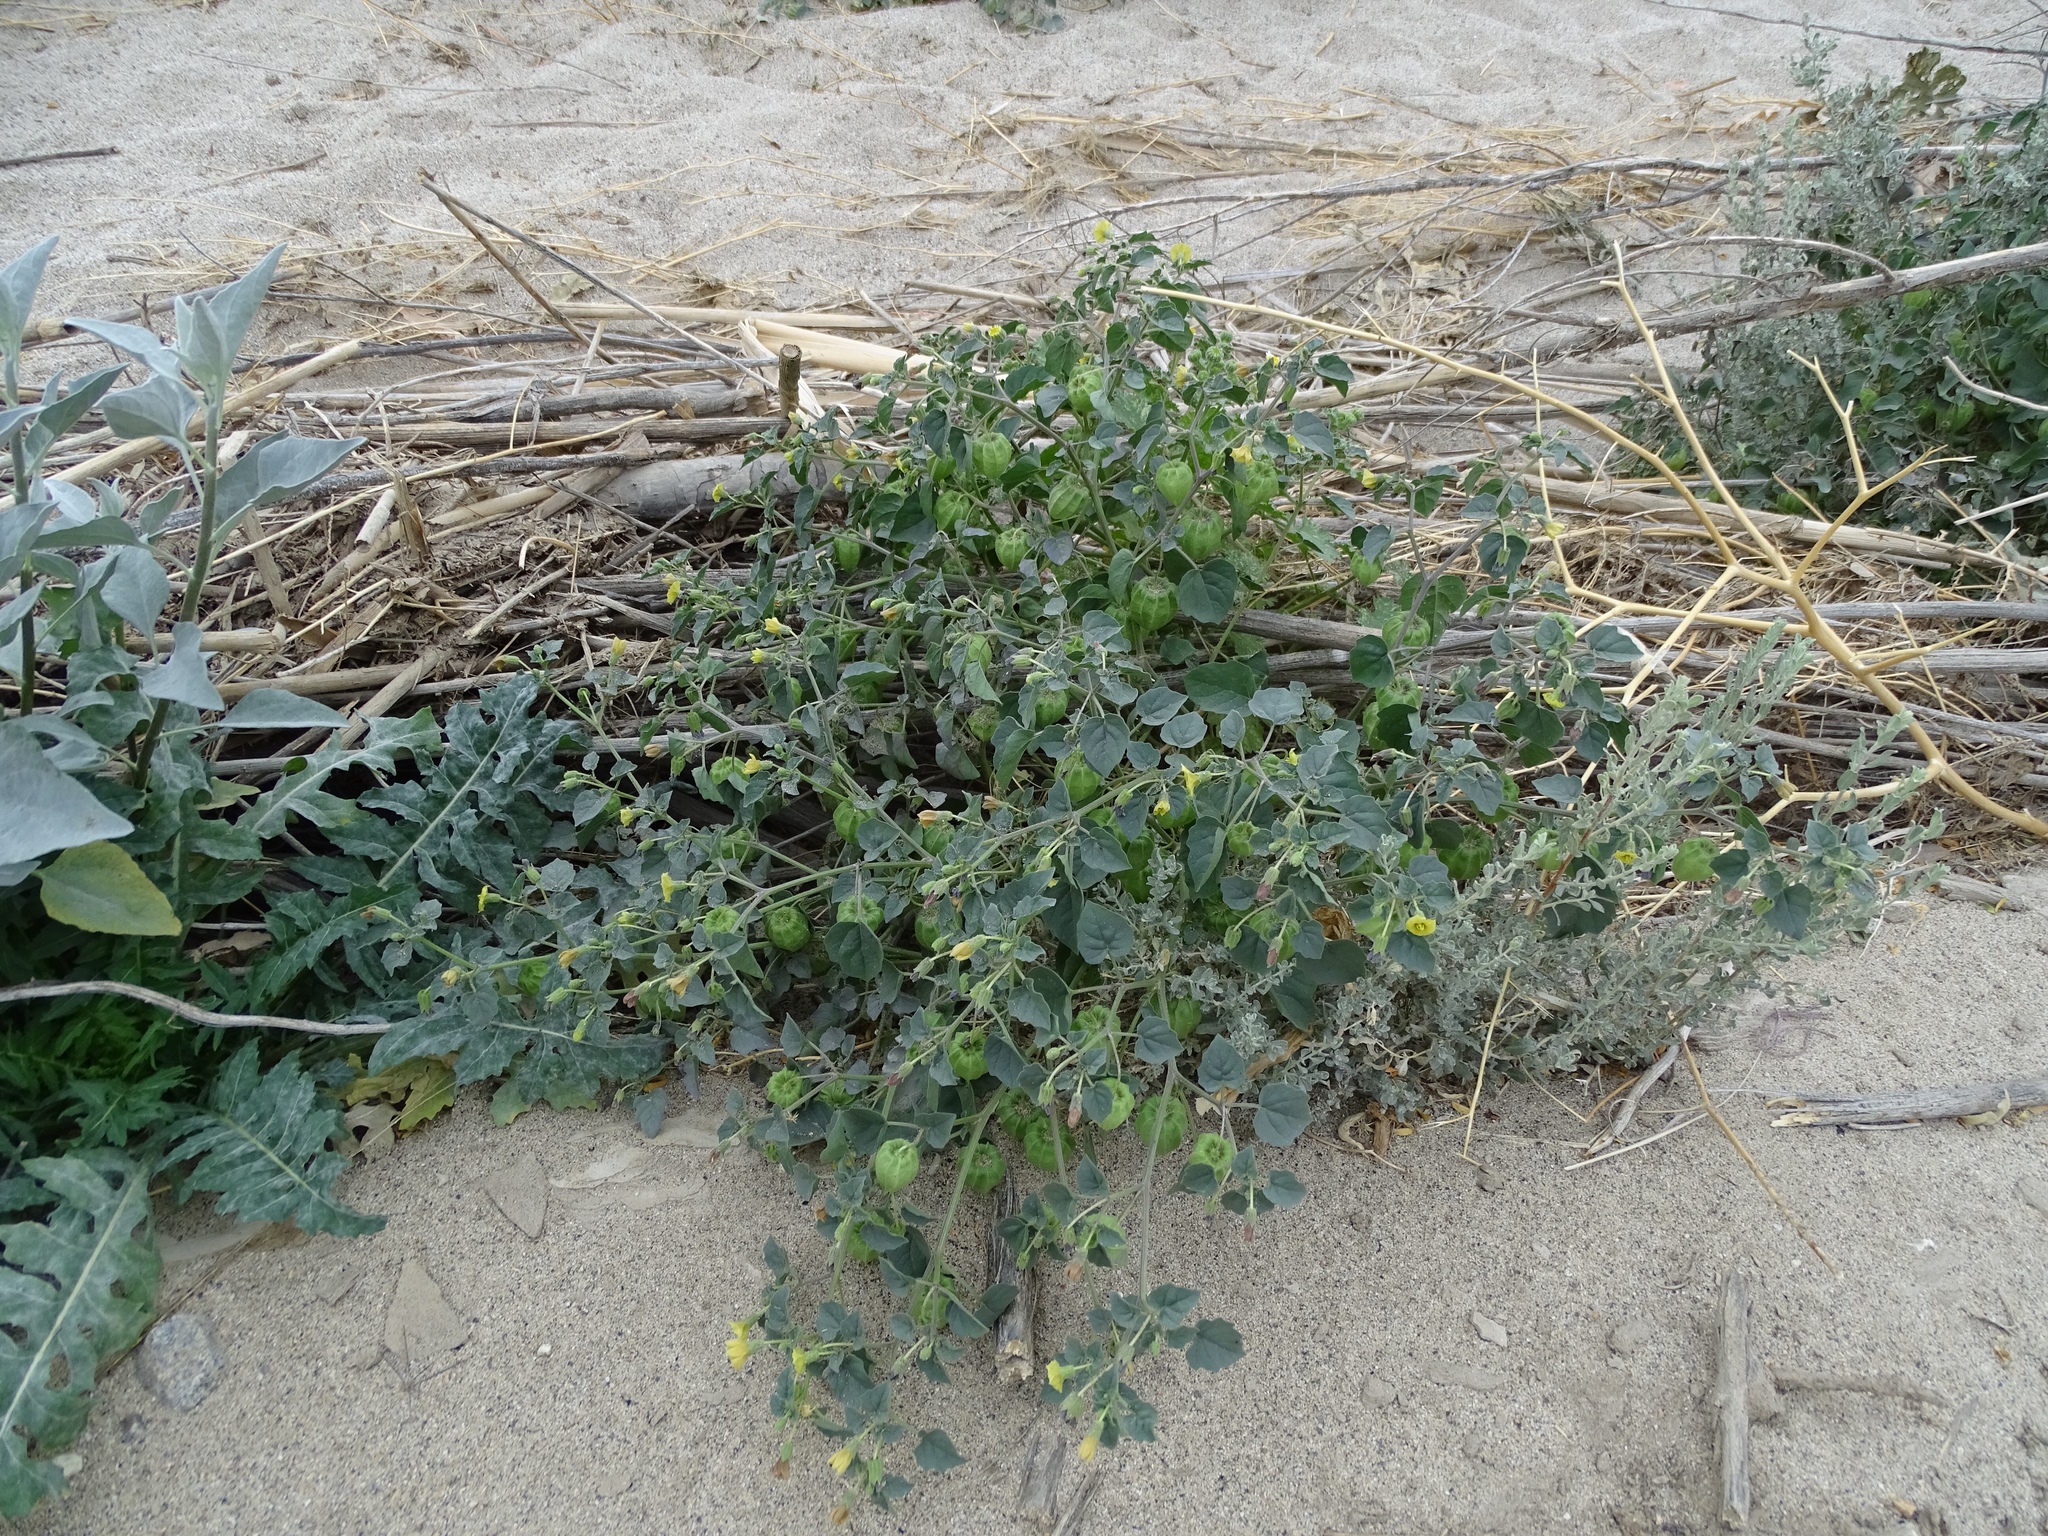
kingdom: Plantae
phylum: Tracheophyta
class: Magnoliopsida
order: Solanales
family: Solanaceae
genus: Physalis
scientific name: Physalis crassifolia
